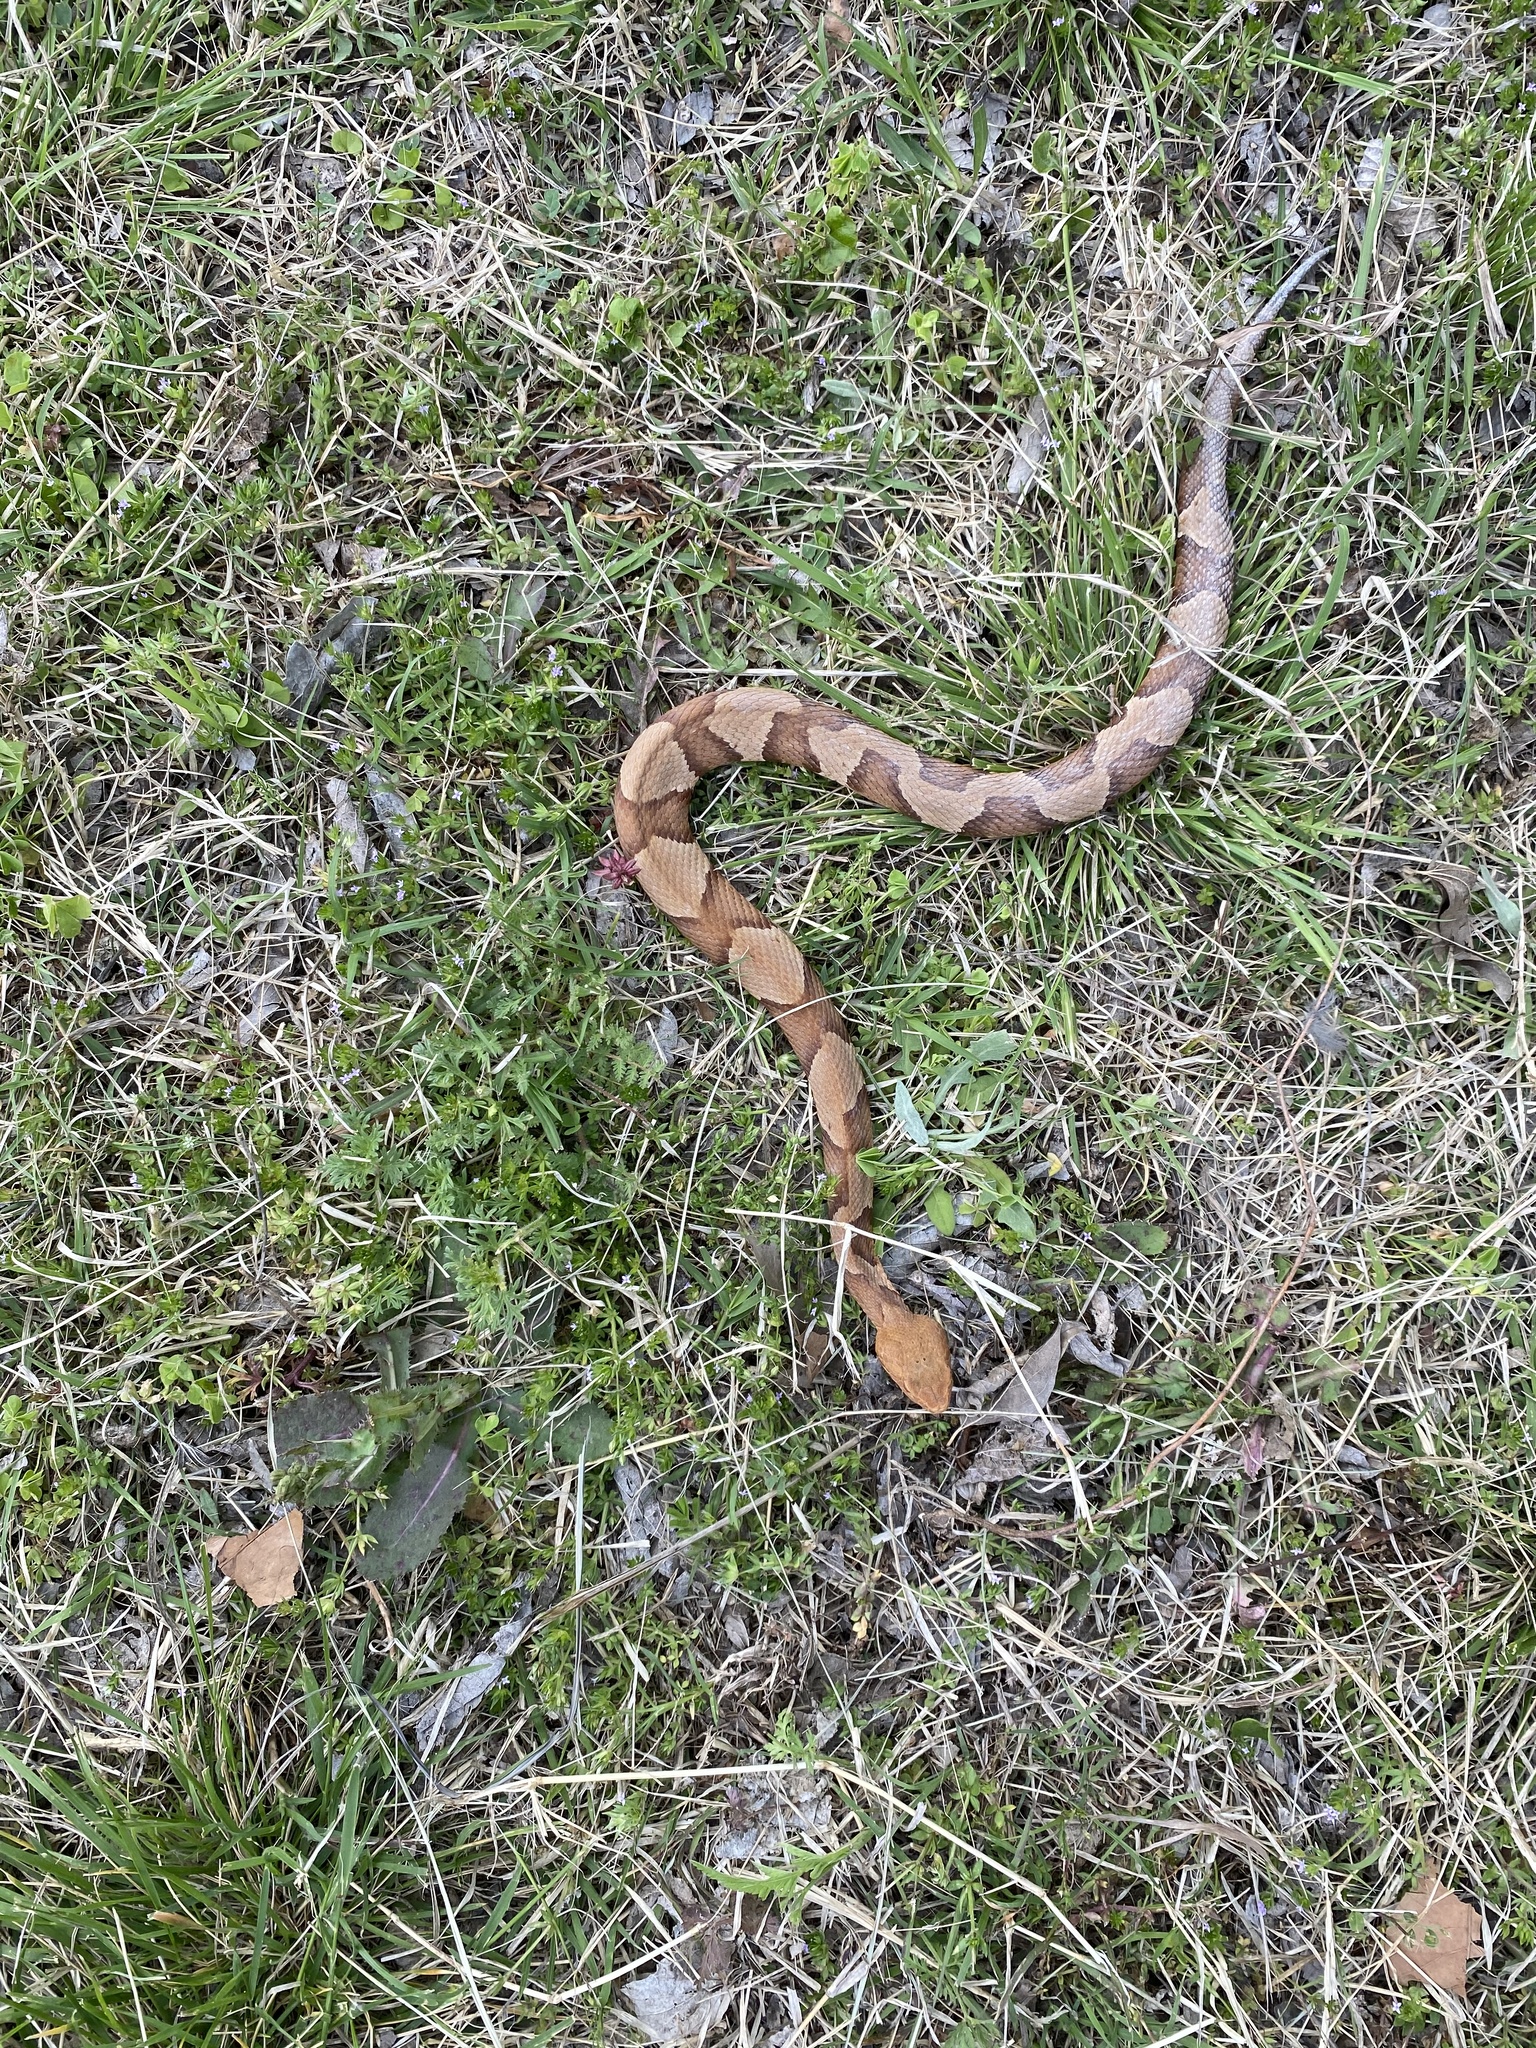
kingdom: Animalia
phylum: Chordata
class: Squamata
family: Viperidae
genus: Agkistrodon
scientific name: Agkistrodon laticinctus
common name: Broad-banded copperhead
